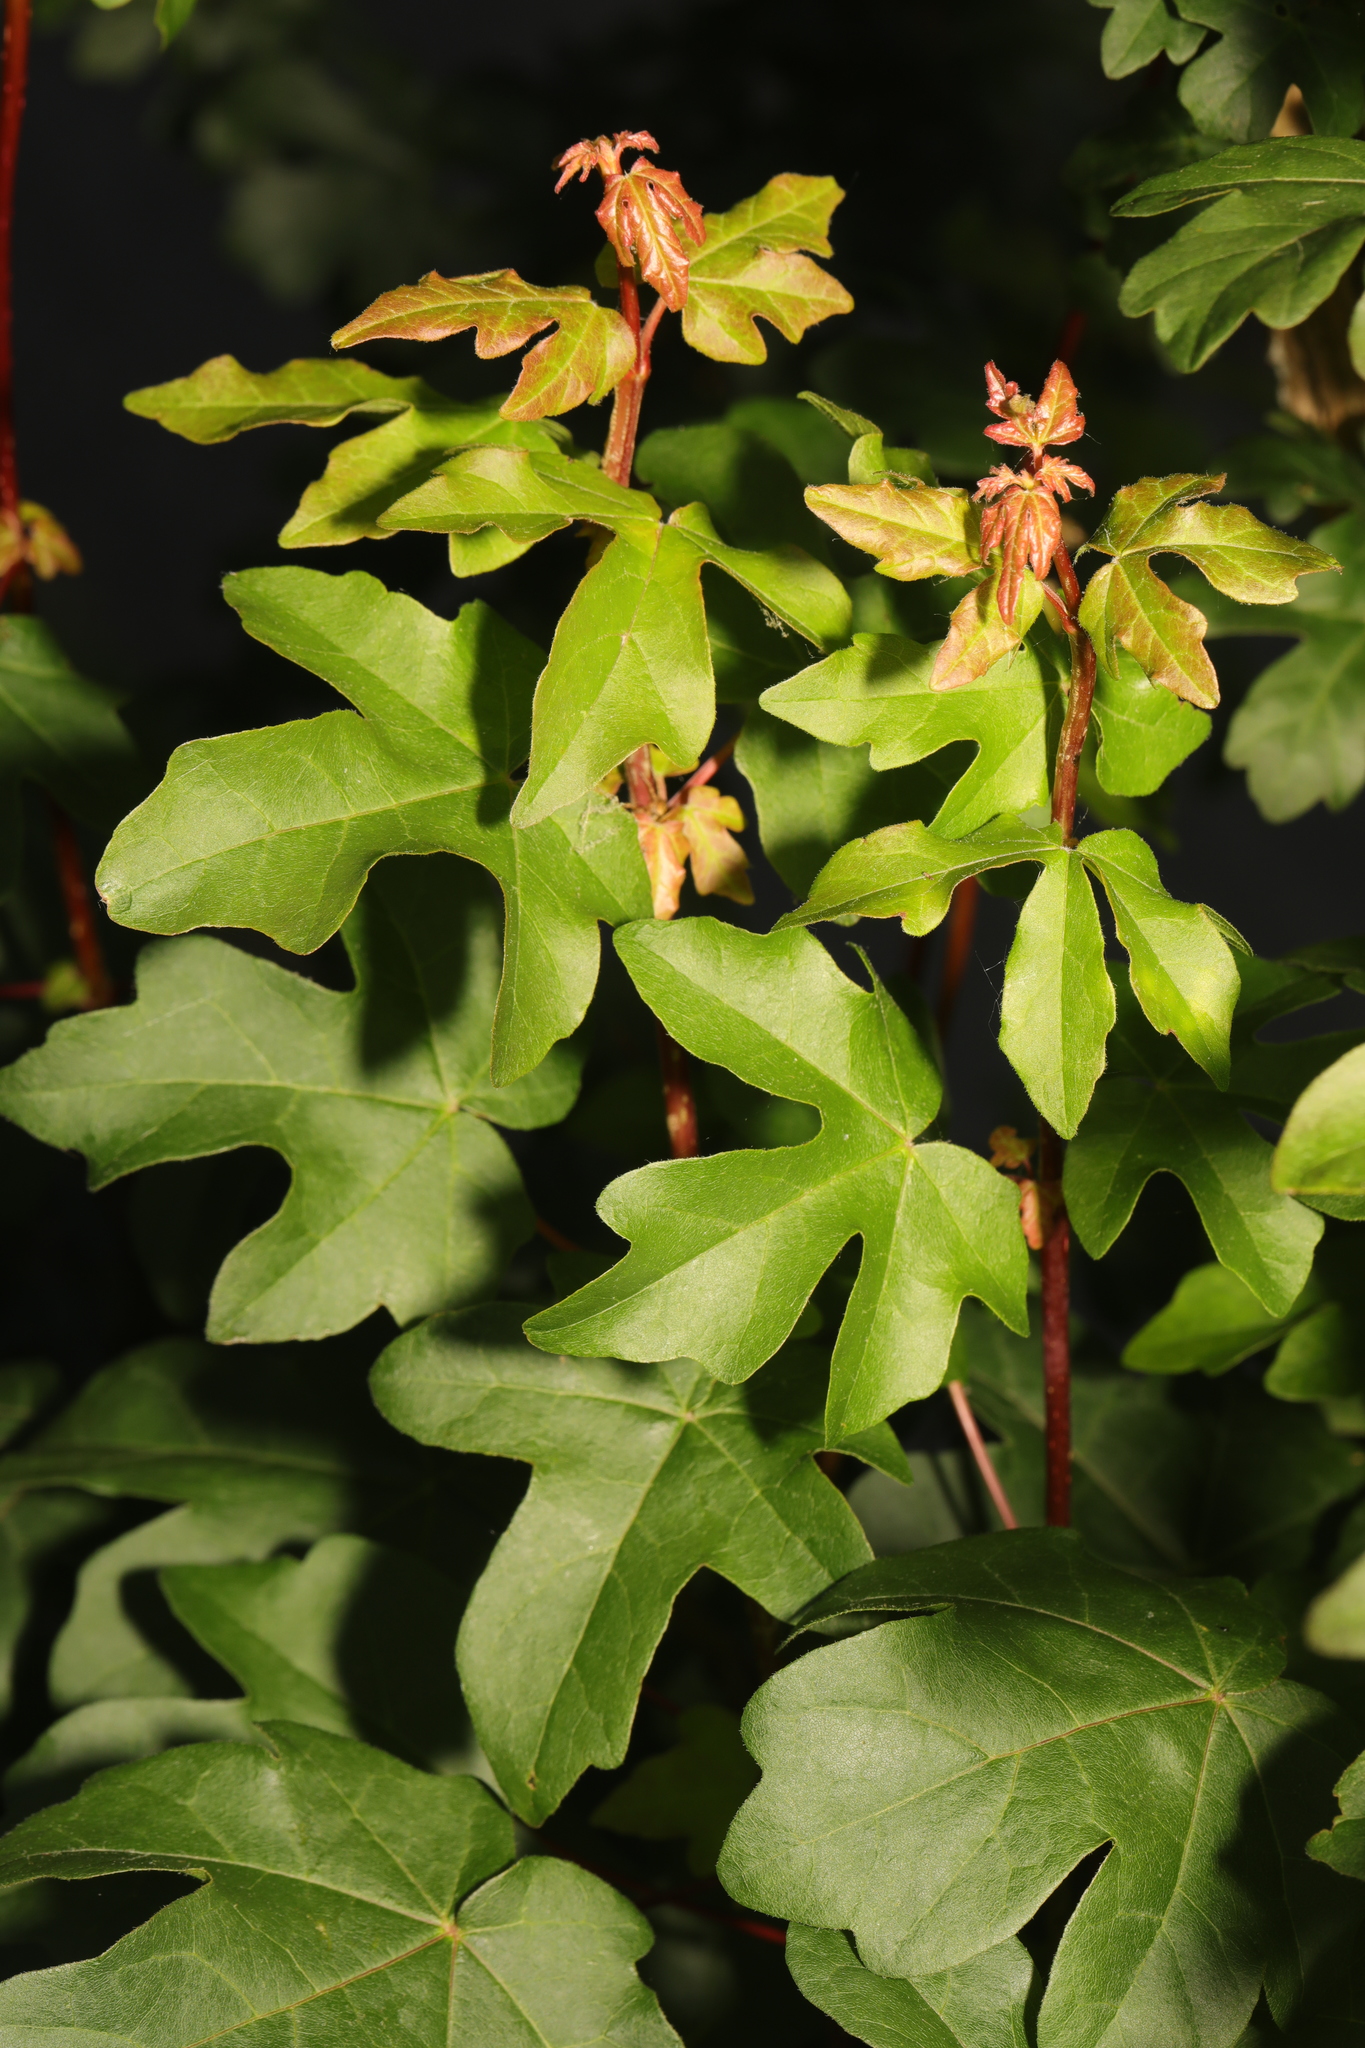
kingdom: Plantae
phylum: Tracheophyta
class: Magnoliopsida
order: Sapindales
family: Sapindaceae
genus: Acer
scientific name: Acer campestre
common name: Field maple
